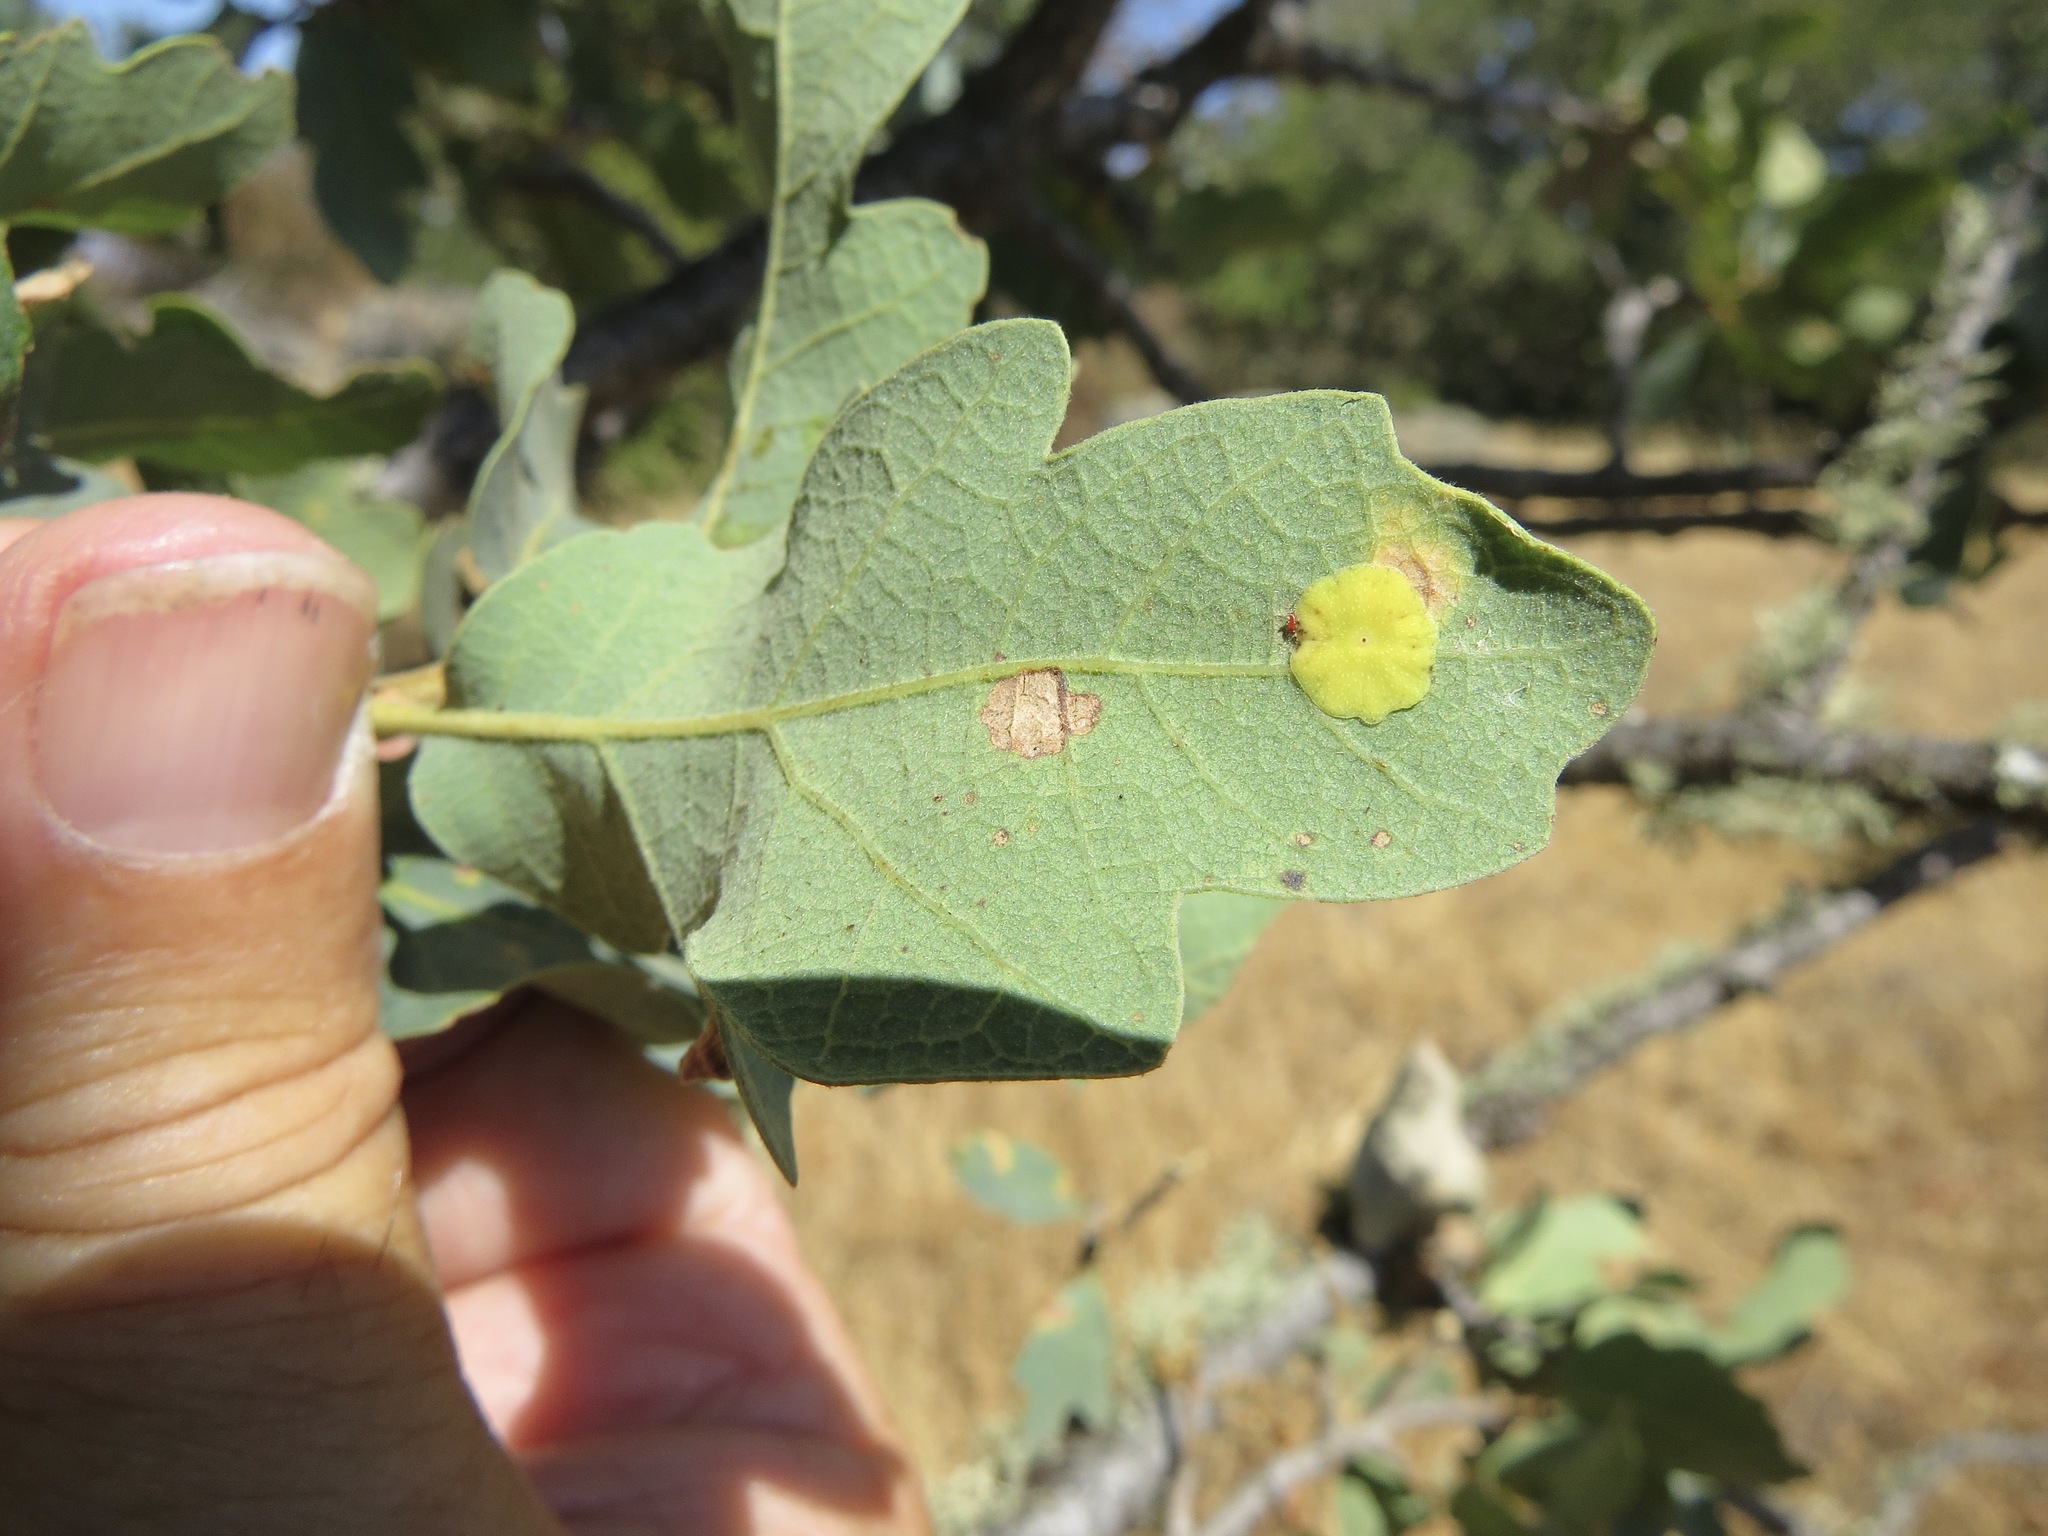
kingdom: Animalia
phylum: Arthropoda
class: Insecta
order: Hymenoptera
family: Cynipidae
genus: Andricus
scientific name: Andricus
